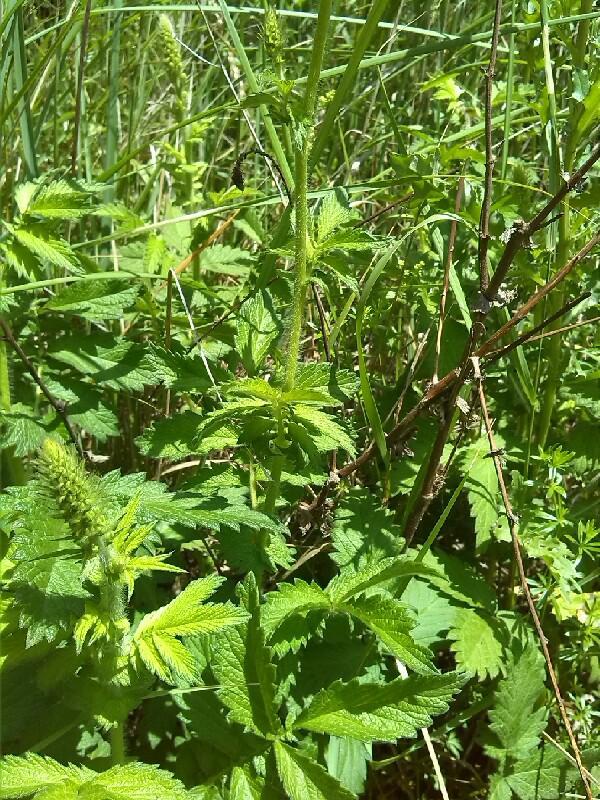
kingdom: Plantae
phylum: Tracheophyta
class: Magnoliopsida
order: Rosales
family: Rosaceae
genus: Agrimonia
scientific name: Agrimonia eupatoria
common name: Agrimony
